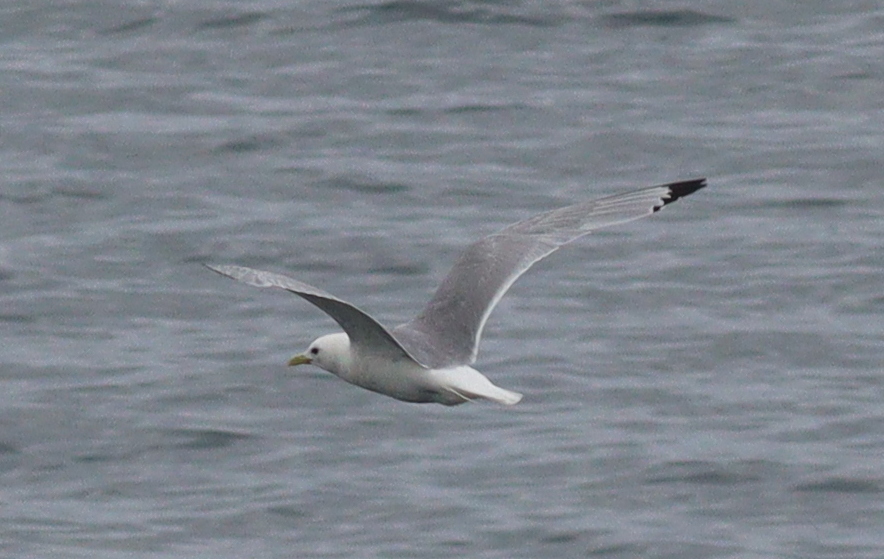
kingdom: Animalia
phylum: Chordata
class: Aves
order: Charadriiformes
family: Laridae
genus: Rissa
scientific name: Rissa tridactyla
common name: Black-legged kittiwake
